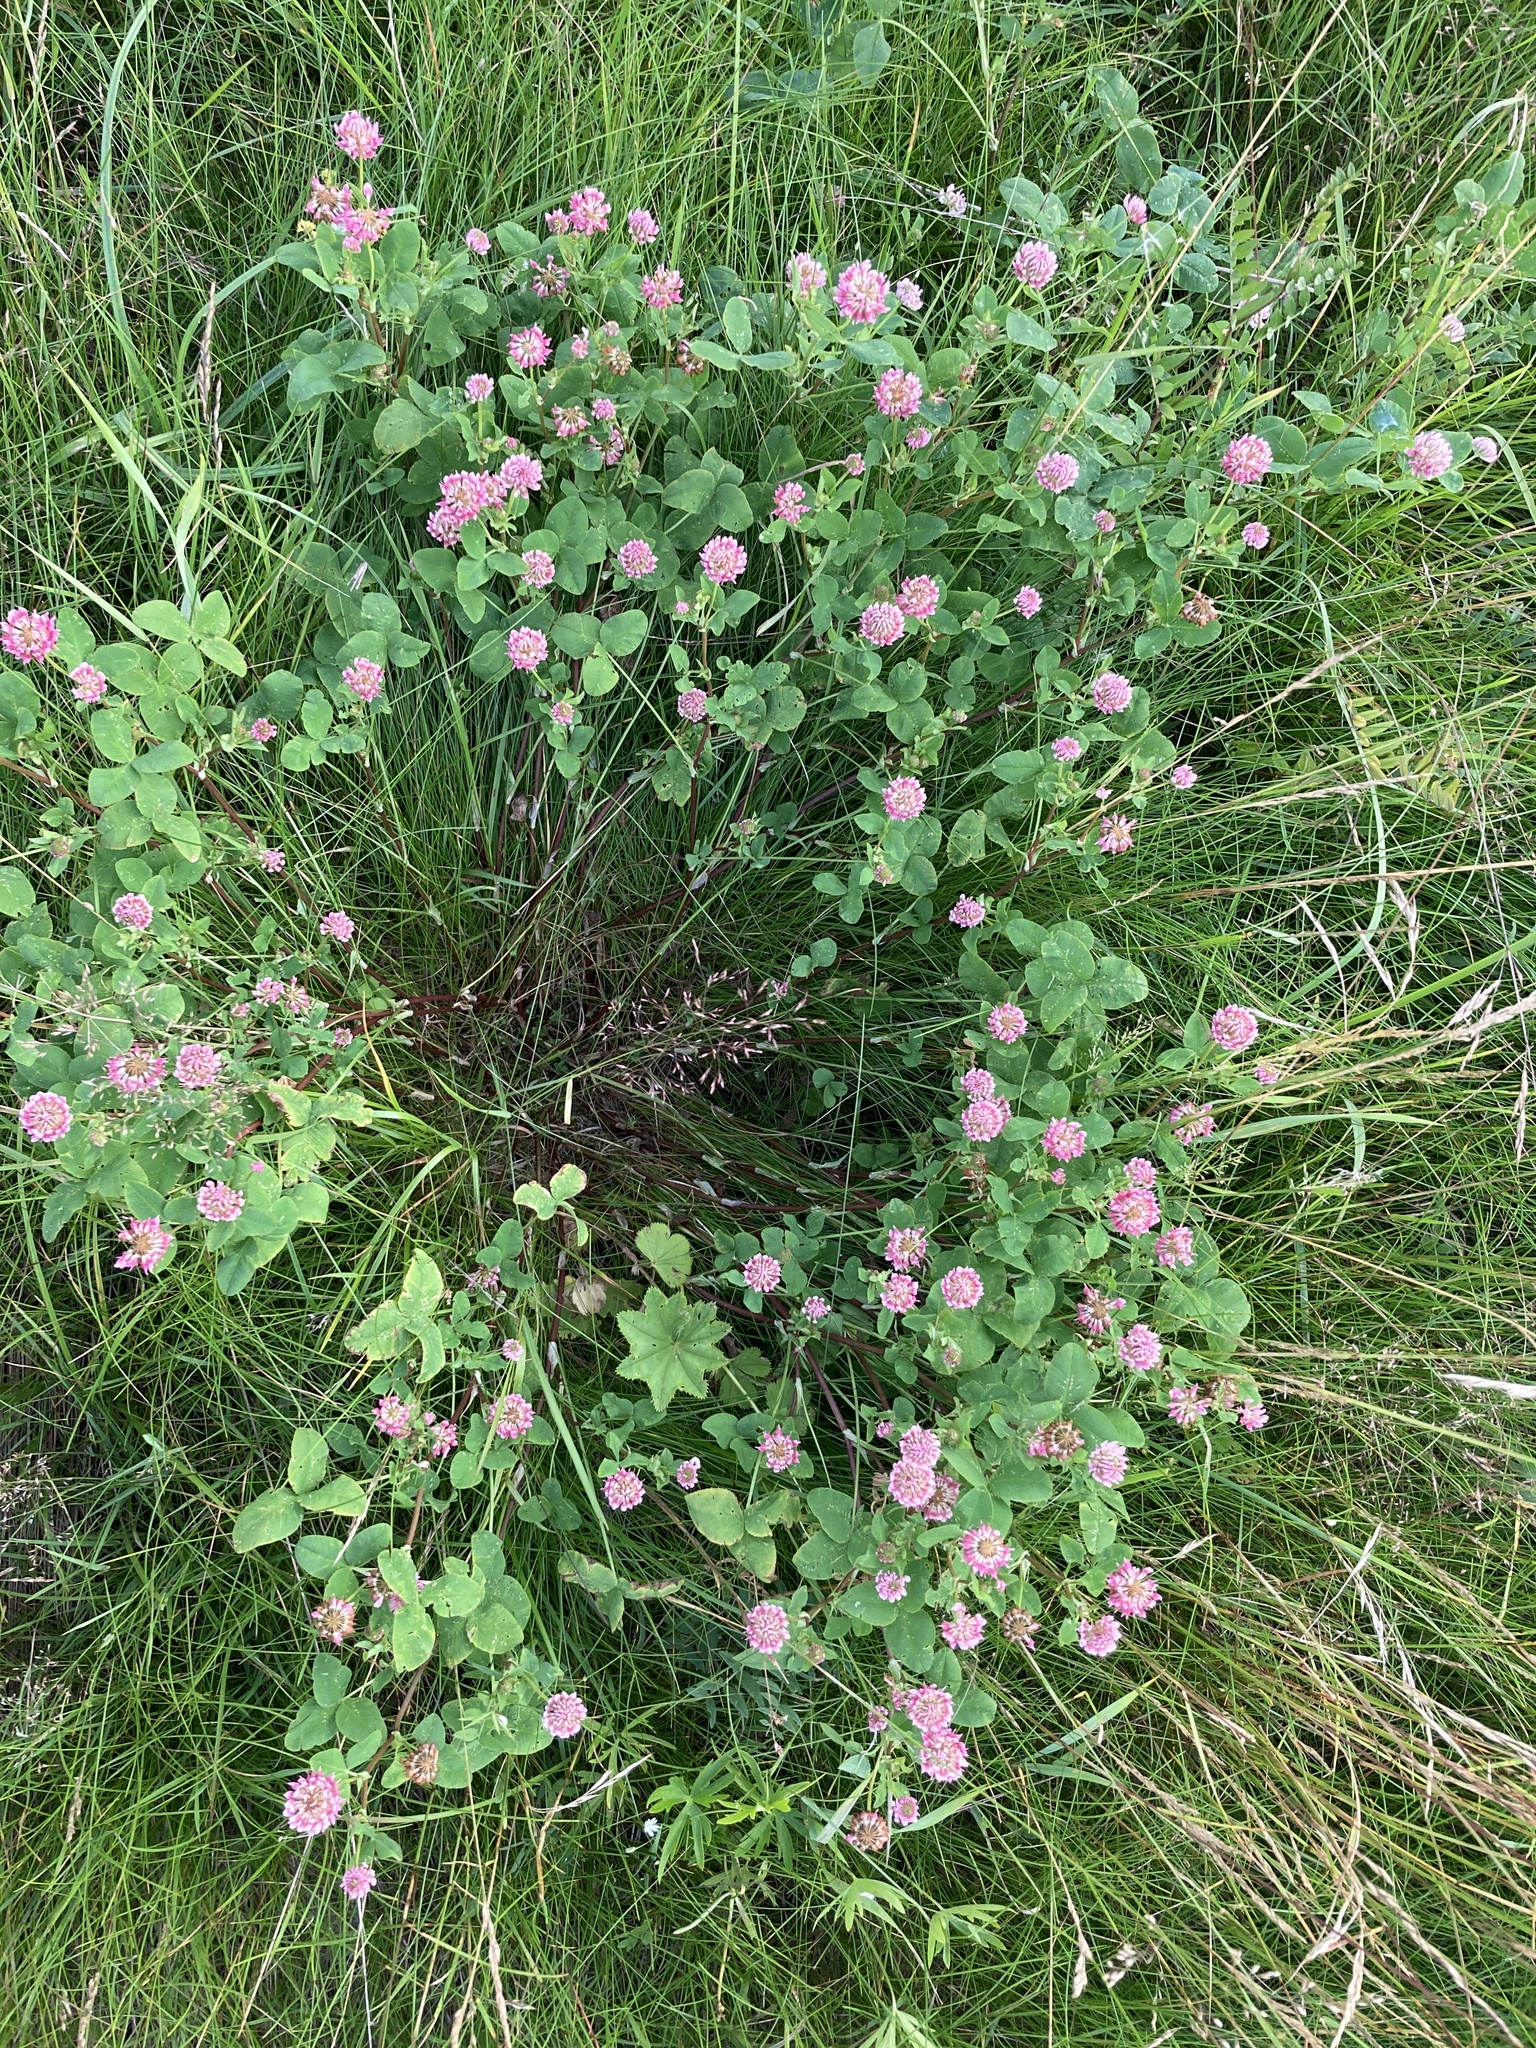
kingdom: Plantae
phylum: Tracheophyta
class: Magnoliopsida
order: Fabales
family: Fabaceae
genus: Trifolium
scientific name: Trifolium hybridum
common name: Alsike clover
